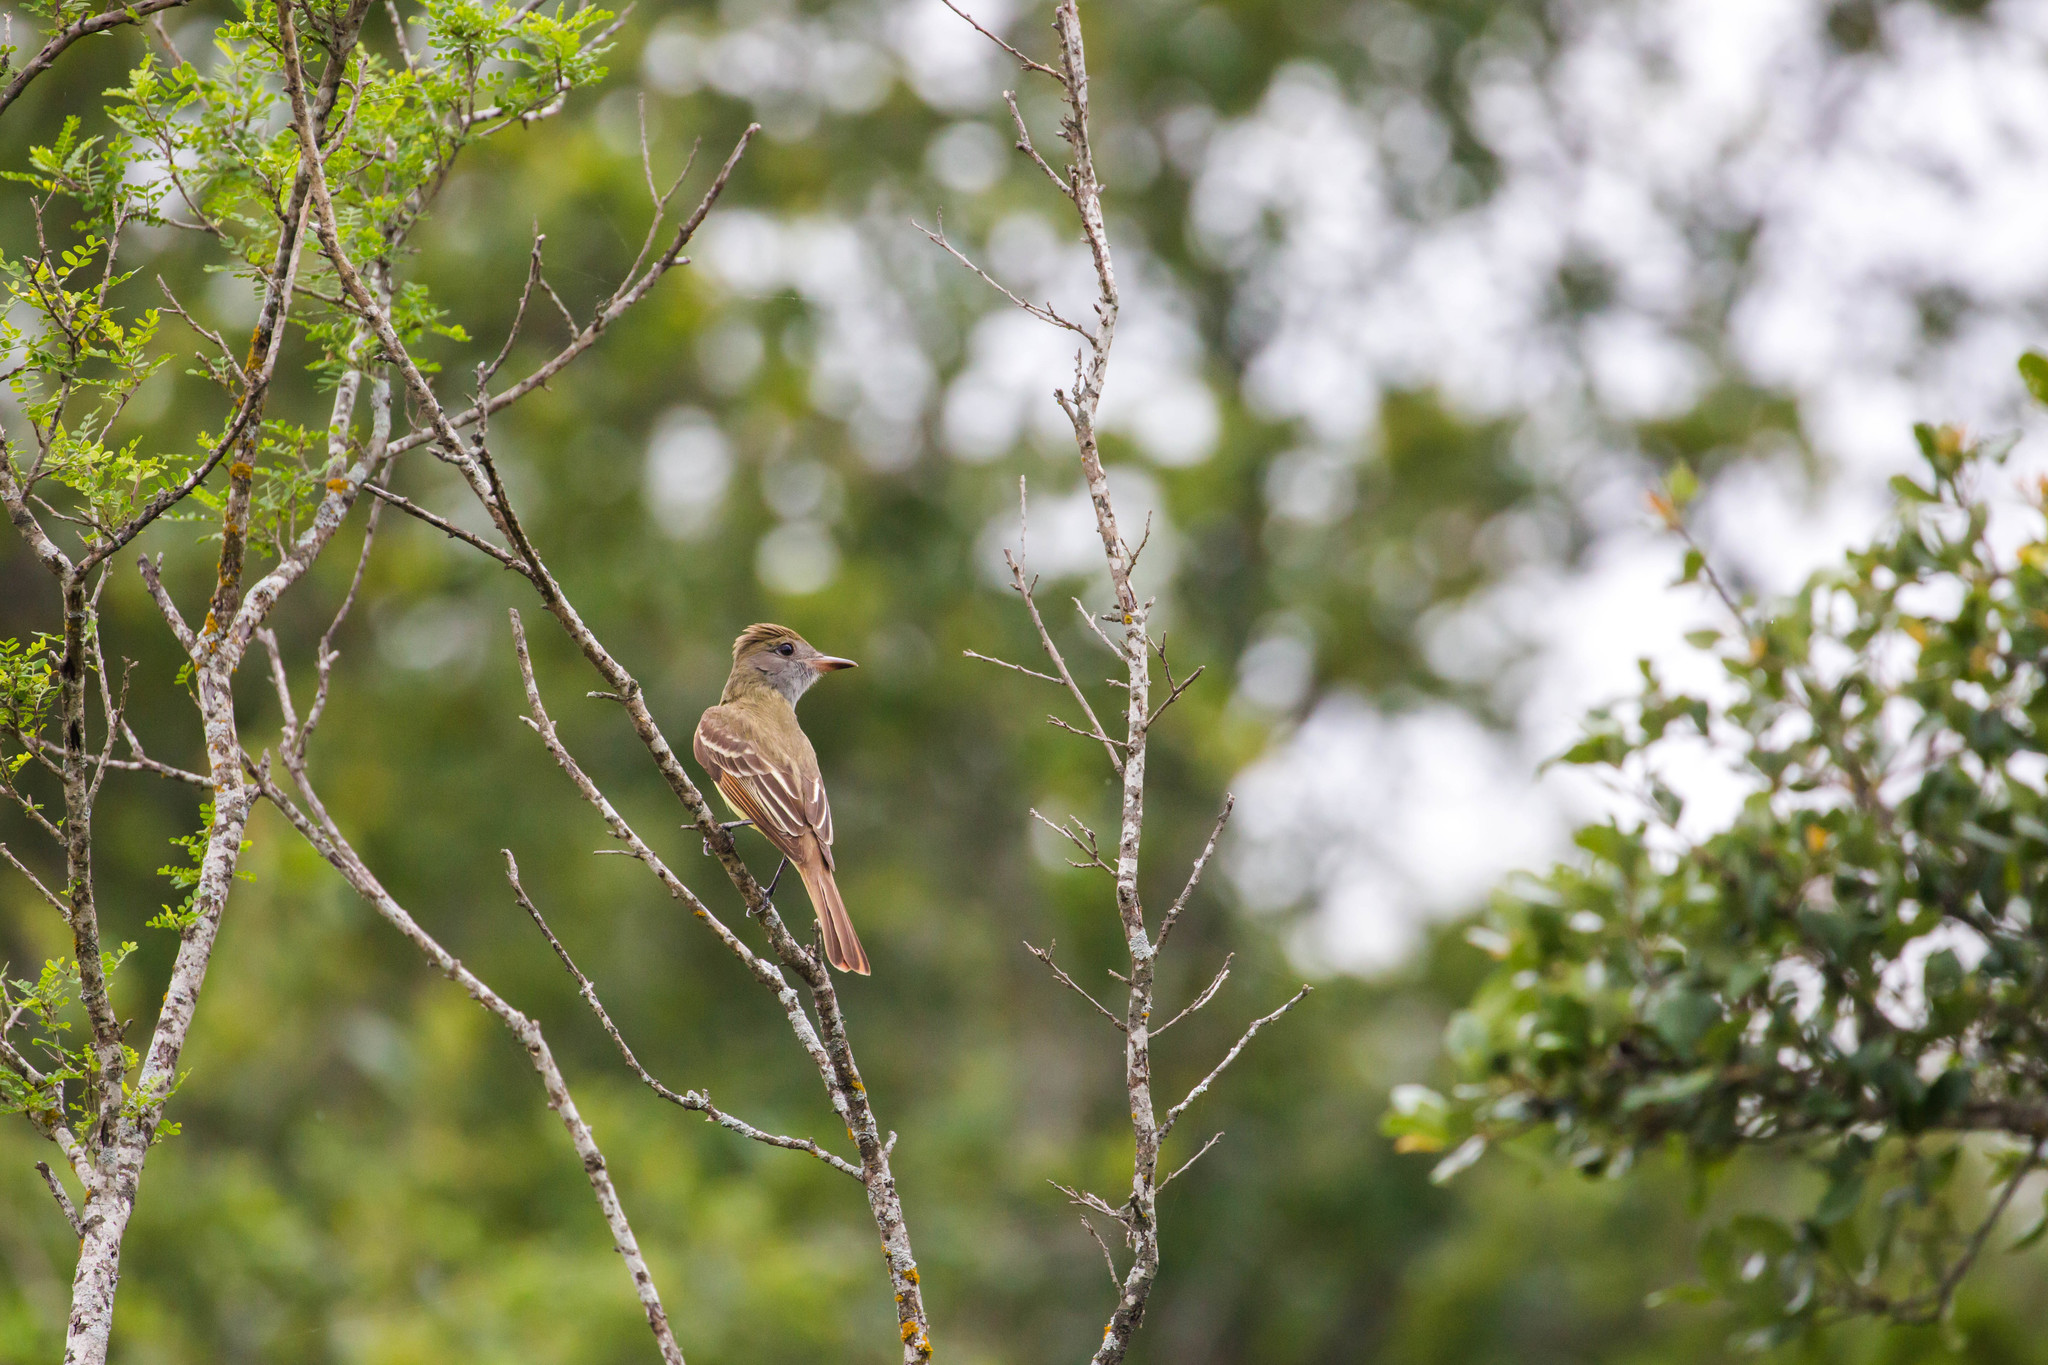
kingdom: Animalia
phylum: Chordata
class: Aves
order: Passeriformes
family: Tyrannidae
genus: Myiarchus
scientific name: Myiarchus crinitus
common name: Great crested flycatcher
